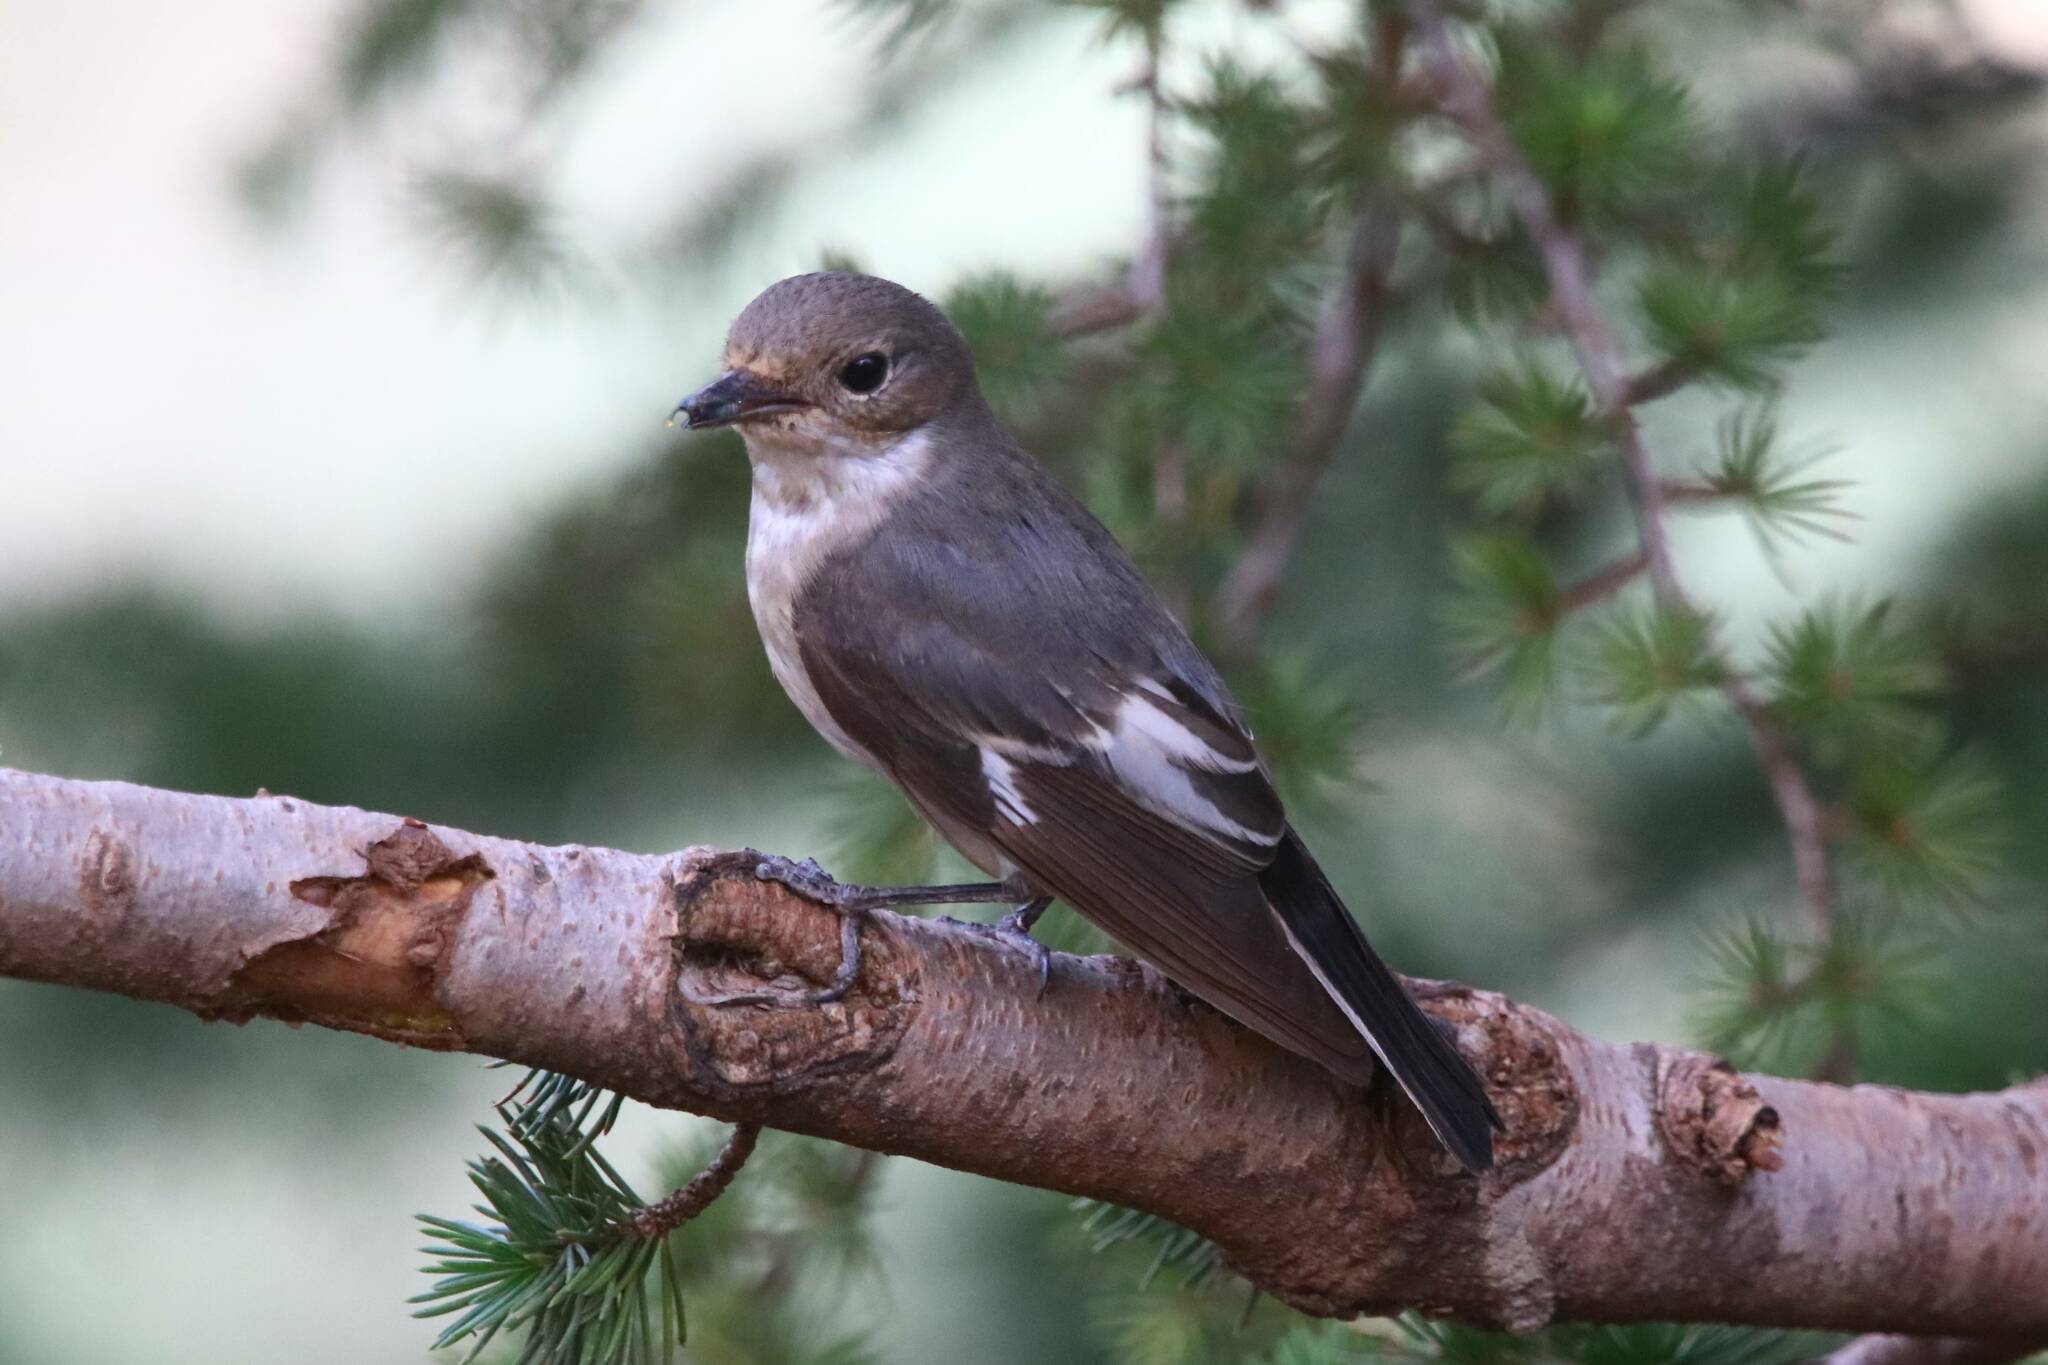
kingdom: Animalia
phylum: Chordata
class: Aves
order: Passeriformes
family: Muscicapidae
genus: Ficedula
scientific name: Ficedula speculigera
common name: Atlas pied flycatcher
